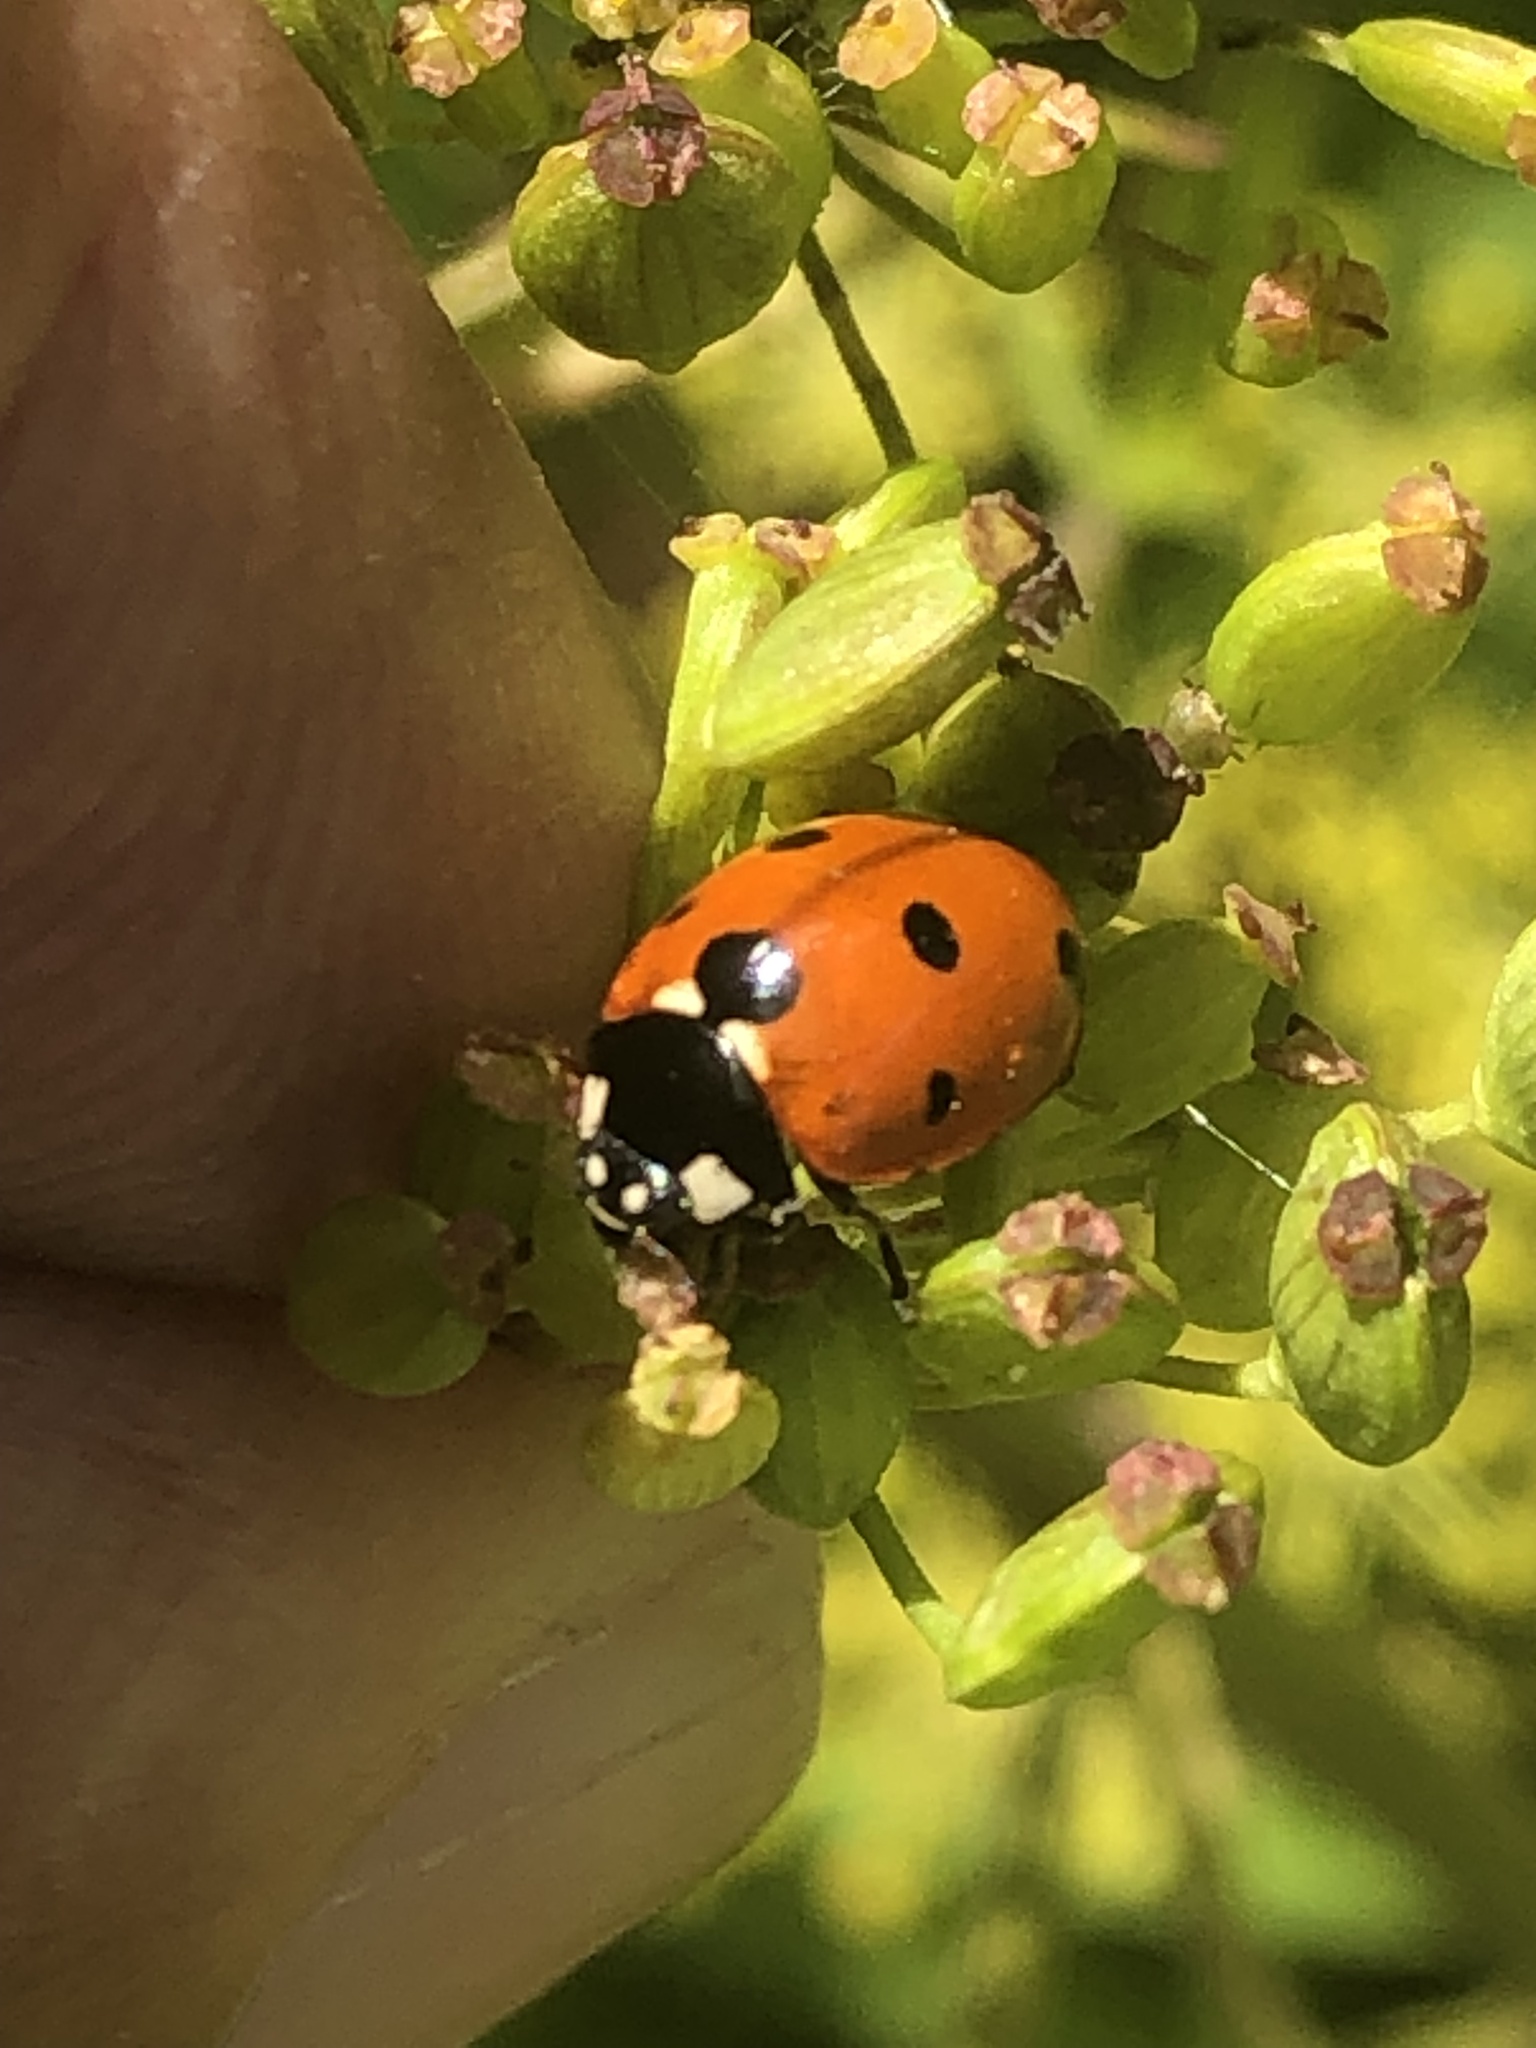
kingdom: Animalia
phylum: Arthropoda
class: Insecta
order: Coleoptera
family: Coccinellidae
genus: Coccinella
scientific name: Coccinella septempunctata
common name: Sevenspotted lady beetle
